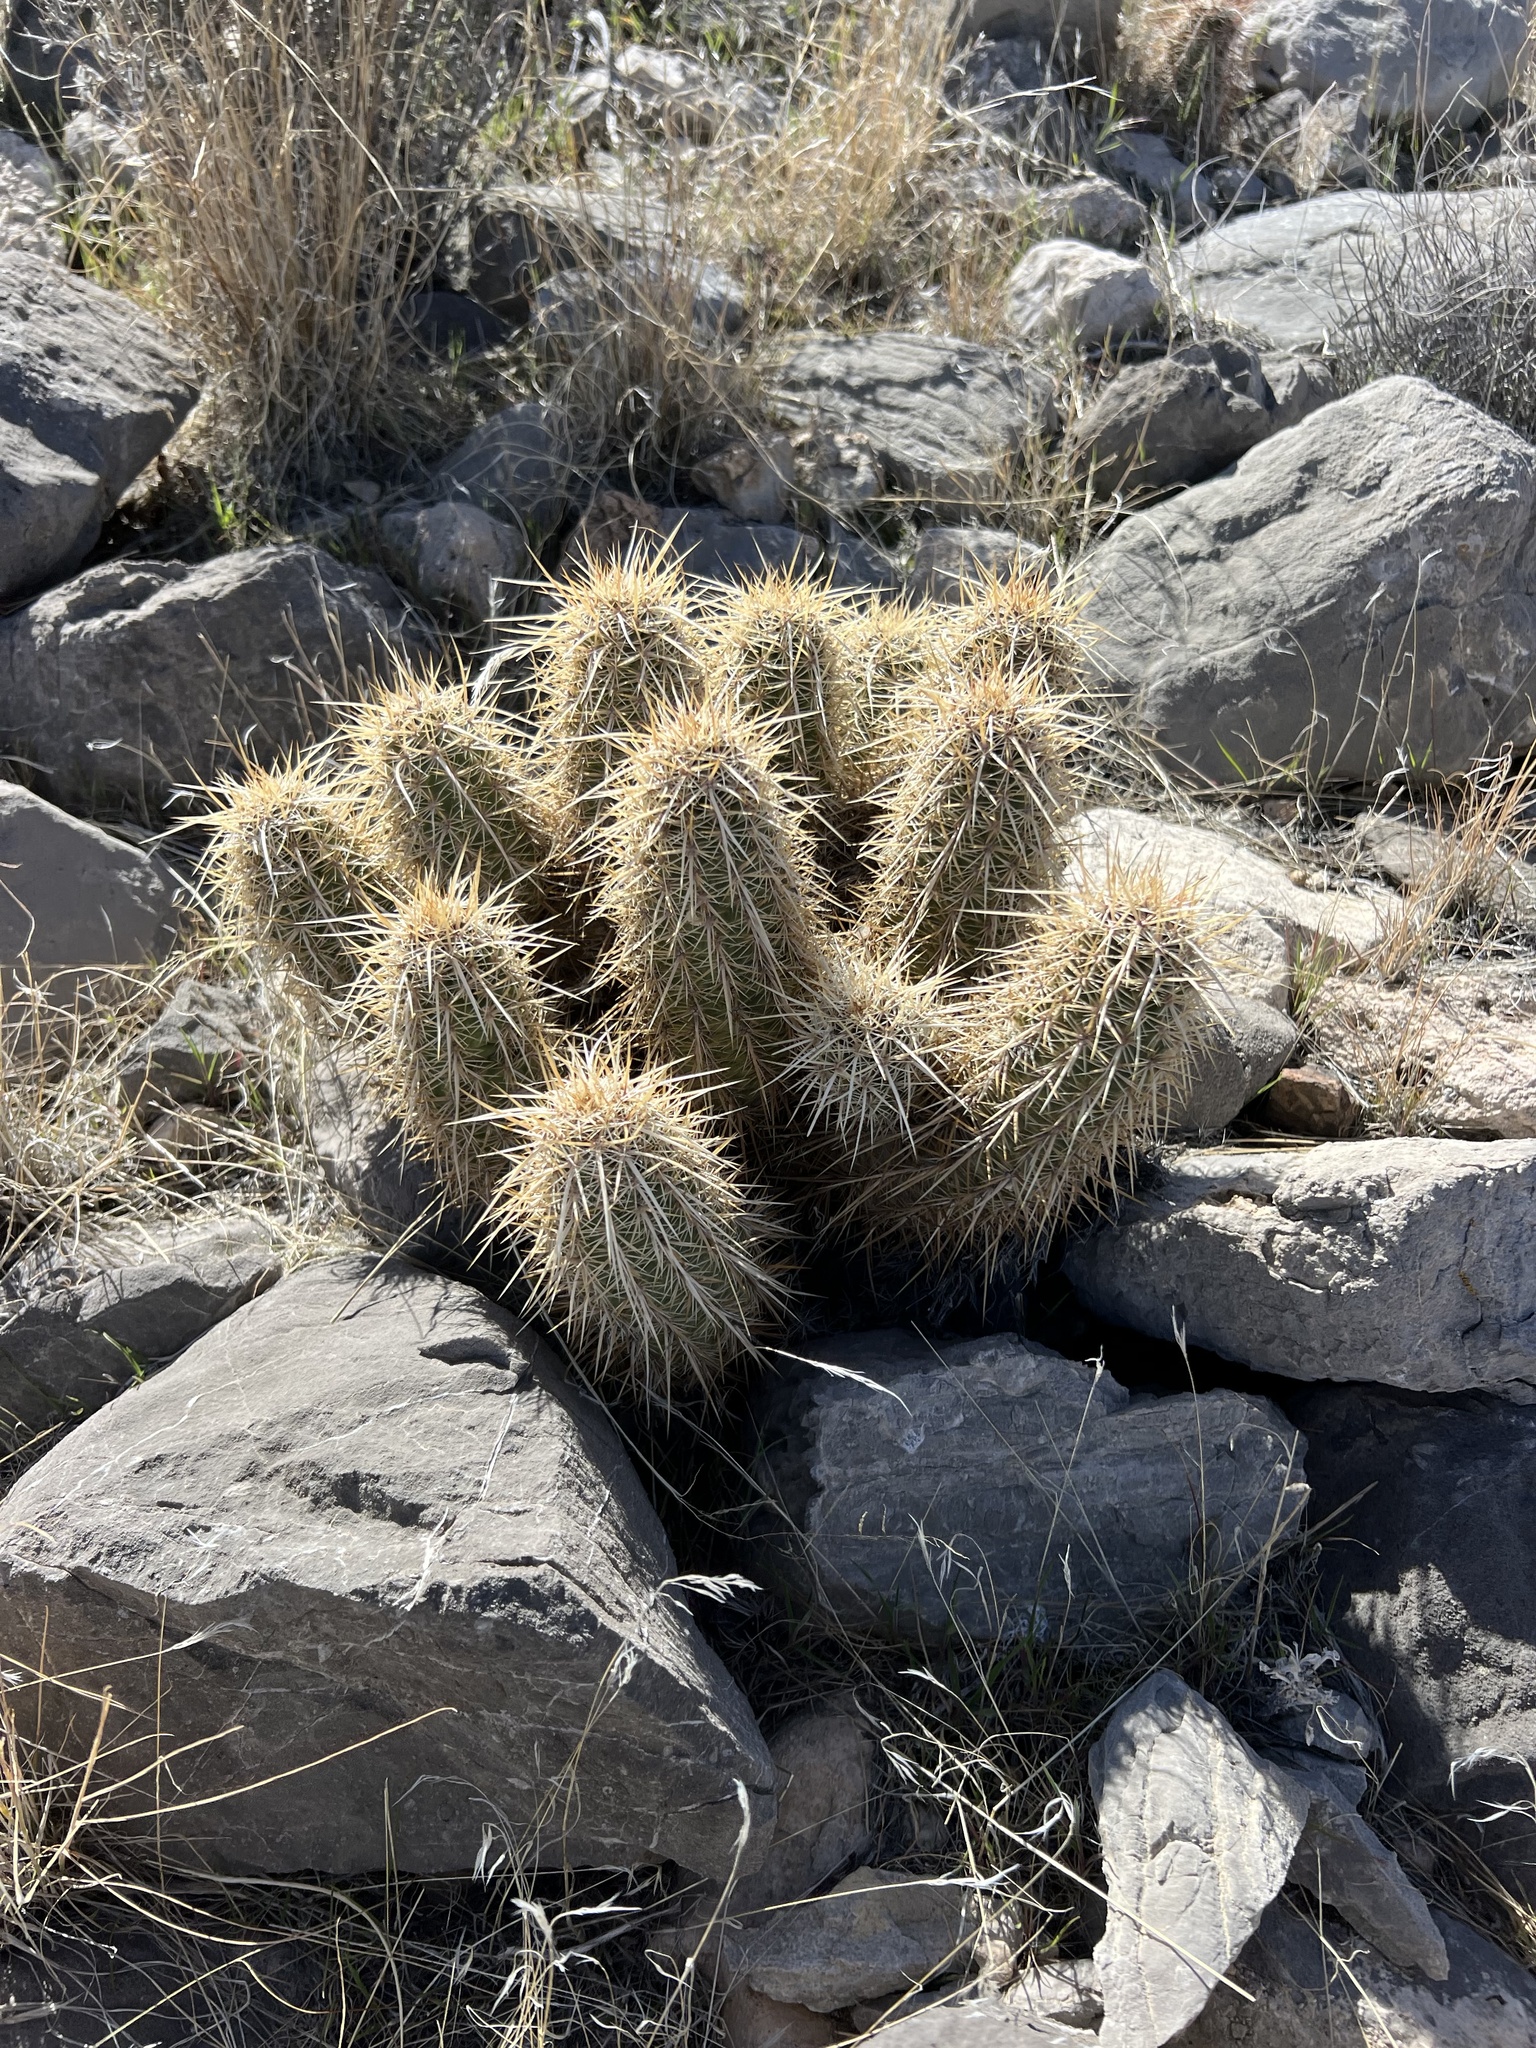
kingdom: Plantae
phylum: Tracheophyta
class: Magnoliopsida
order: Caryophyllales
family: Cactaceae
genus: Echinocereus
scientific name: Echinocereus engelmannii
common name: Engelmann's hedgehog cactus
